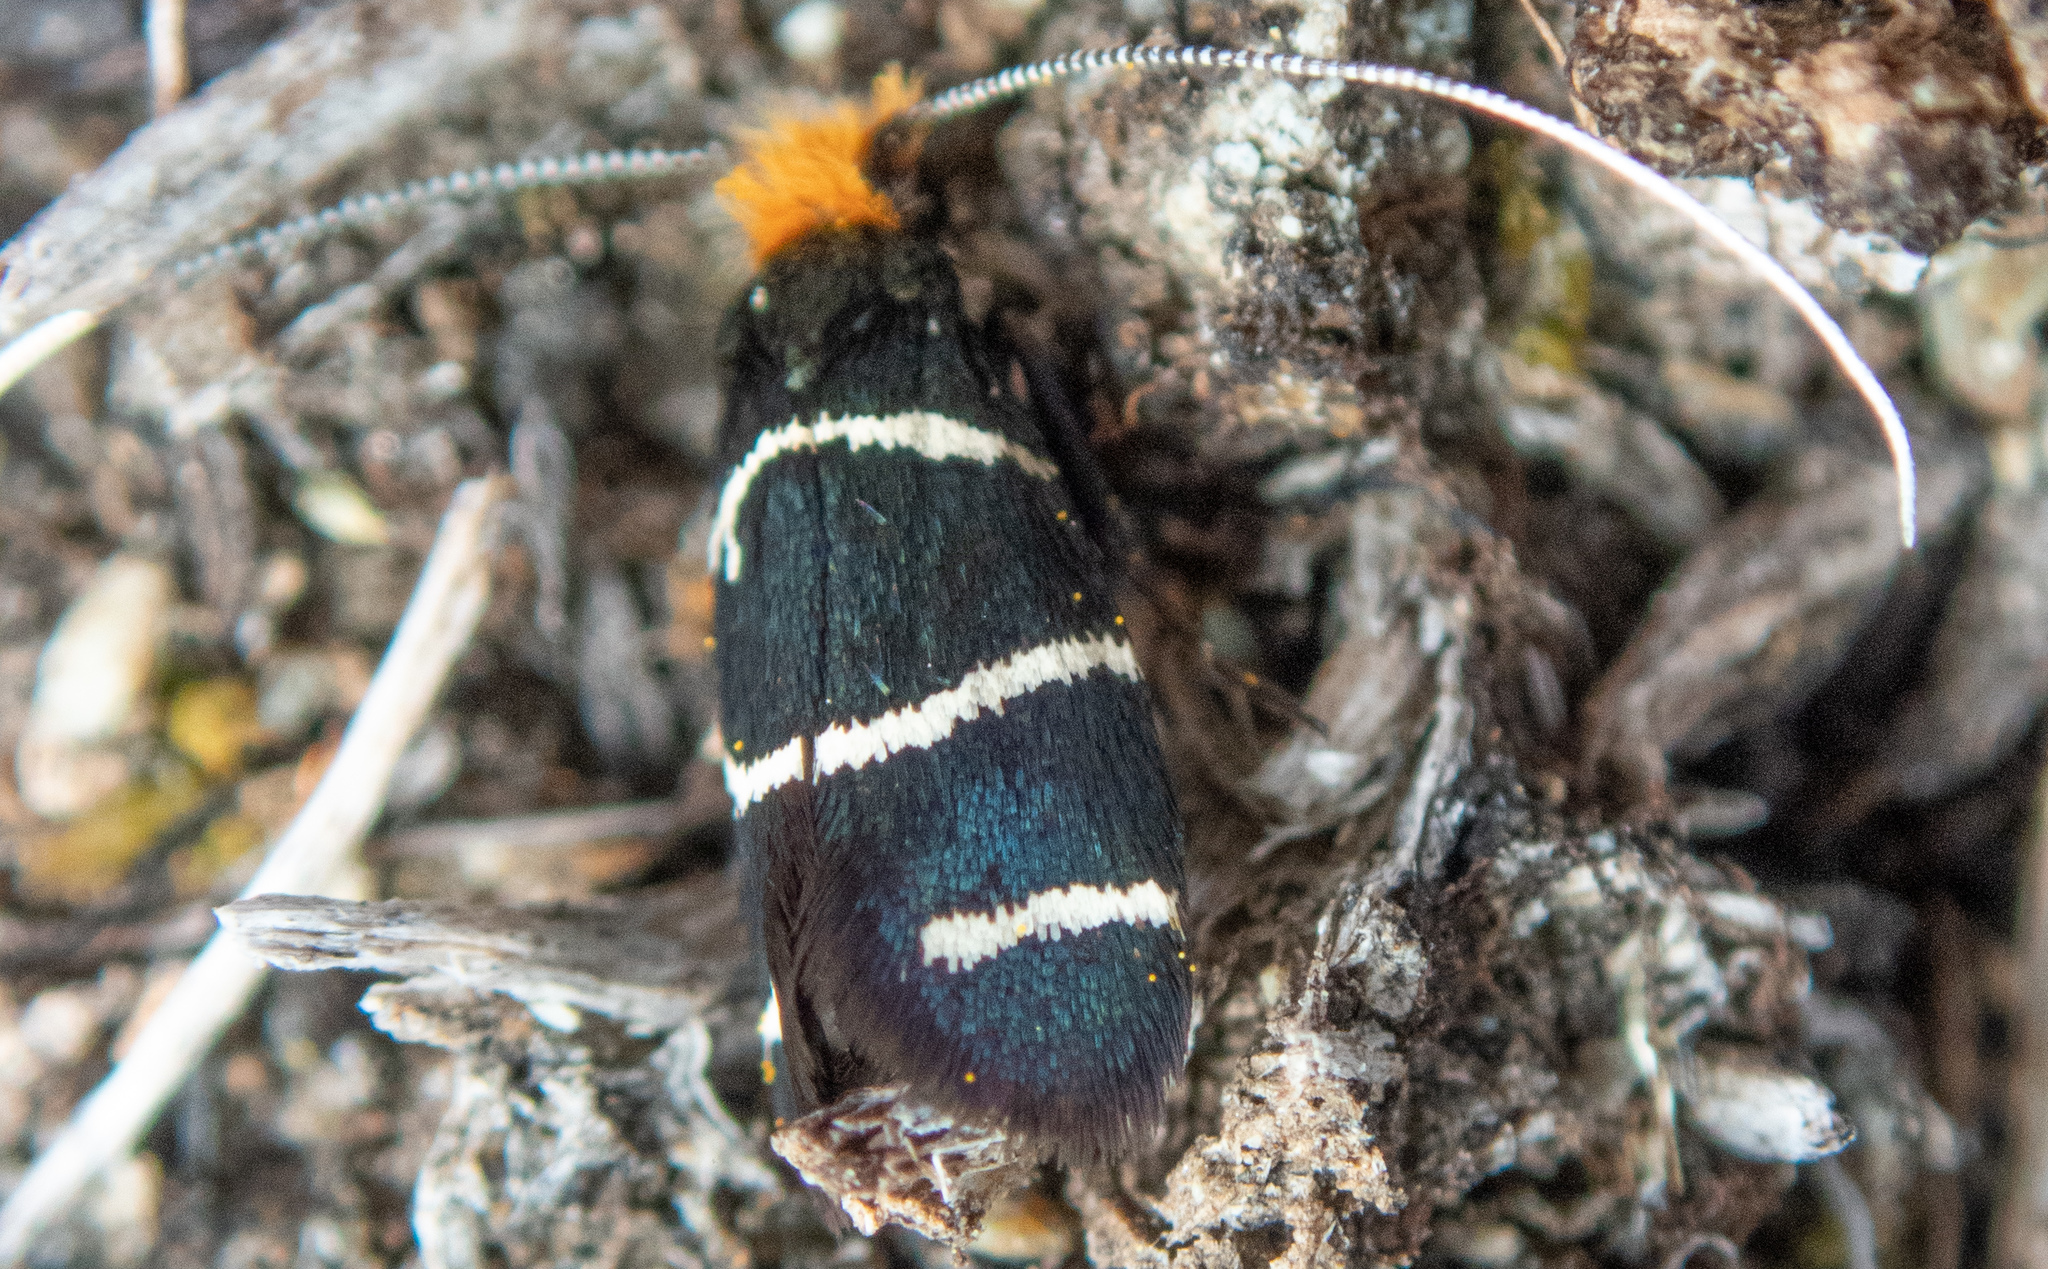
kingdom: Animalia
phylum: Arthropoda
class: Insecta
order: Lepidoptera
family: Adelidae
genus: Adela
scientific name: Adela trigrapha
